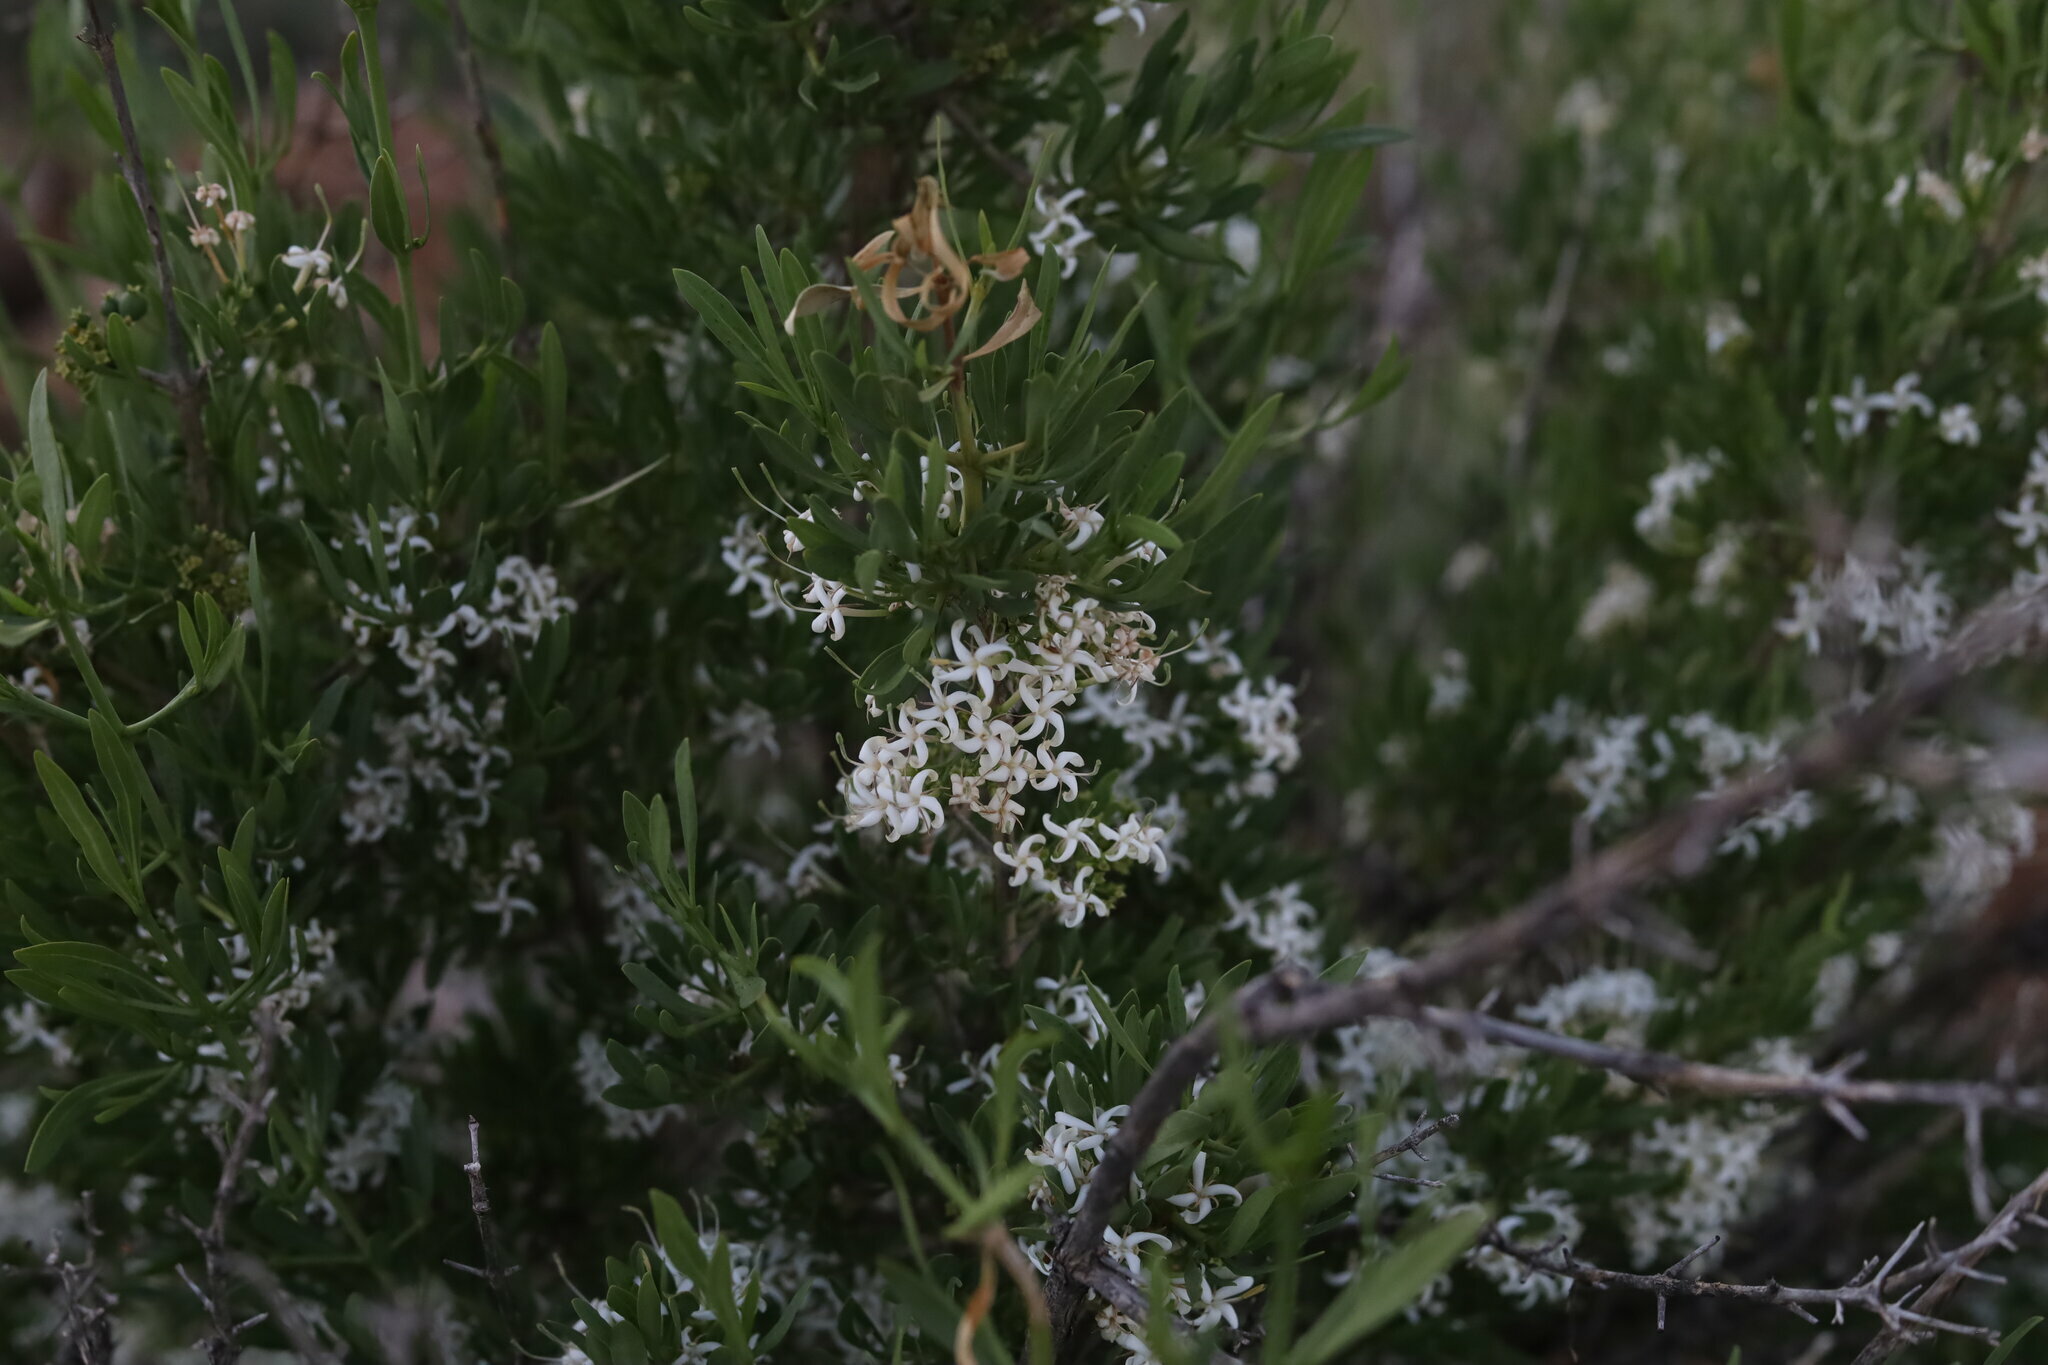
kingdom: Plantae
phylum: Tracheophyta
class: Magnoliopsida
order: Gentianales
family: Rubiaceae
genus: Pavetta
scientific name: Pavetta zeyheri
